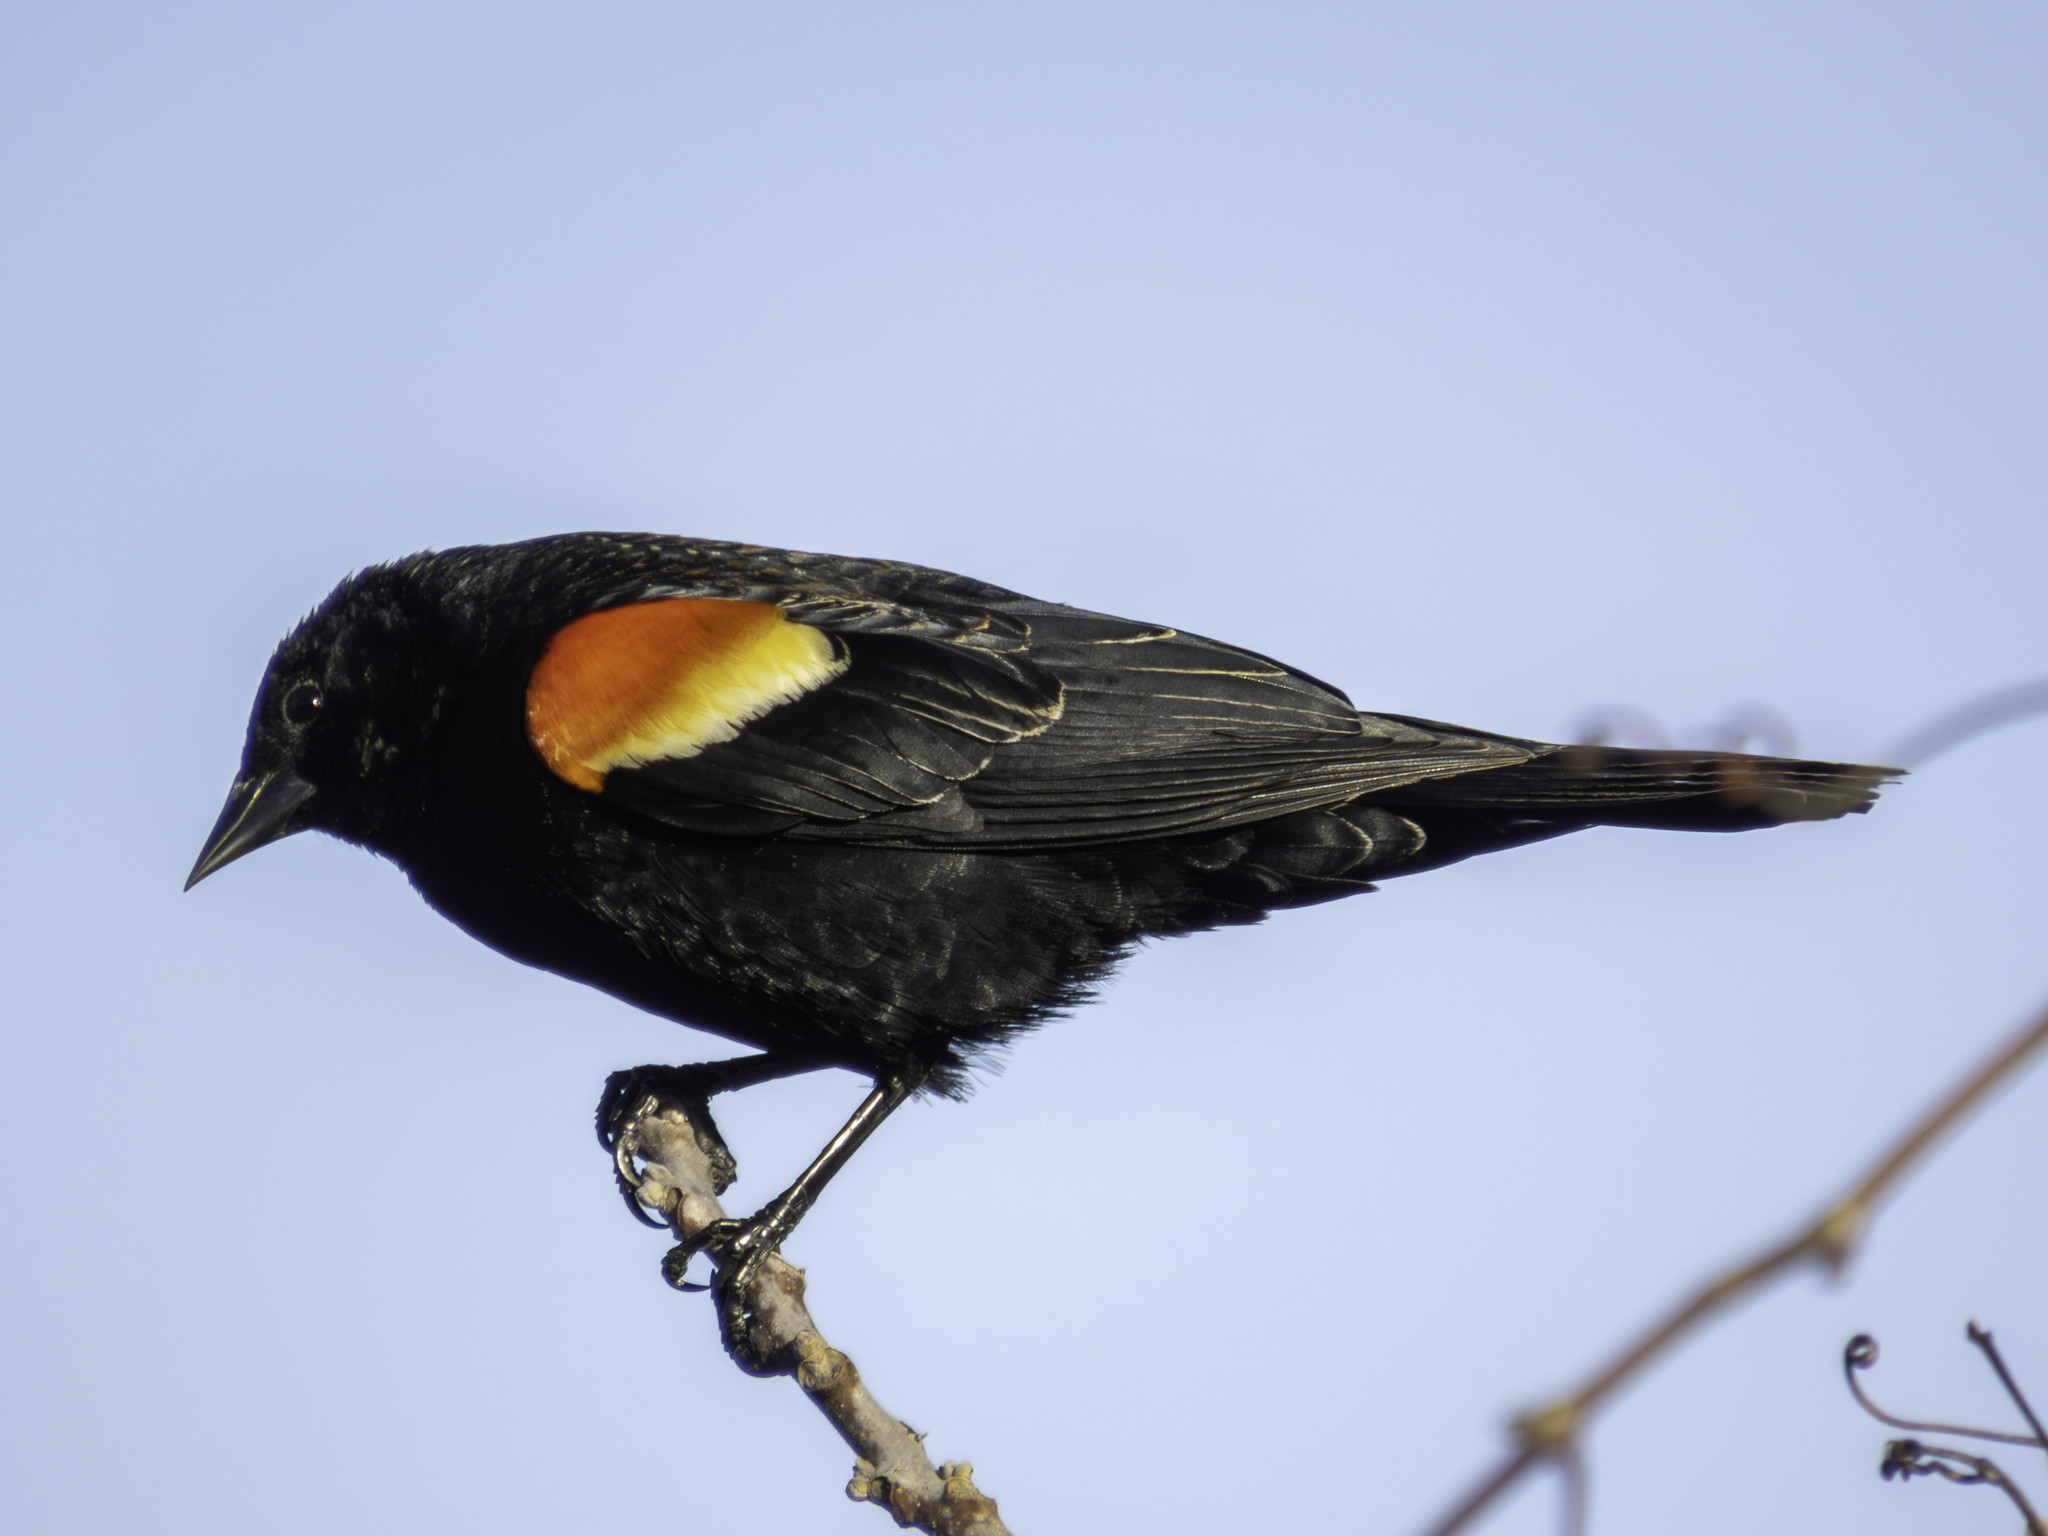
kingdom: Animalia
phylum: Chordata
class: Aves
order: Passeriformes
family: Icteridae
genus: Agelaius
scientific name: Agelaius phoeniceus
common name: Red-winged blackbird
